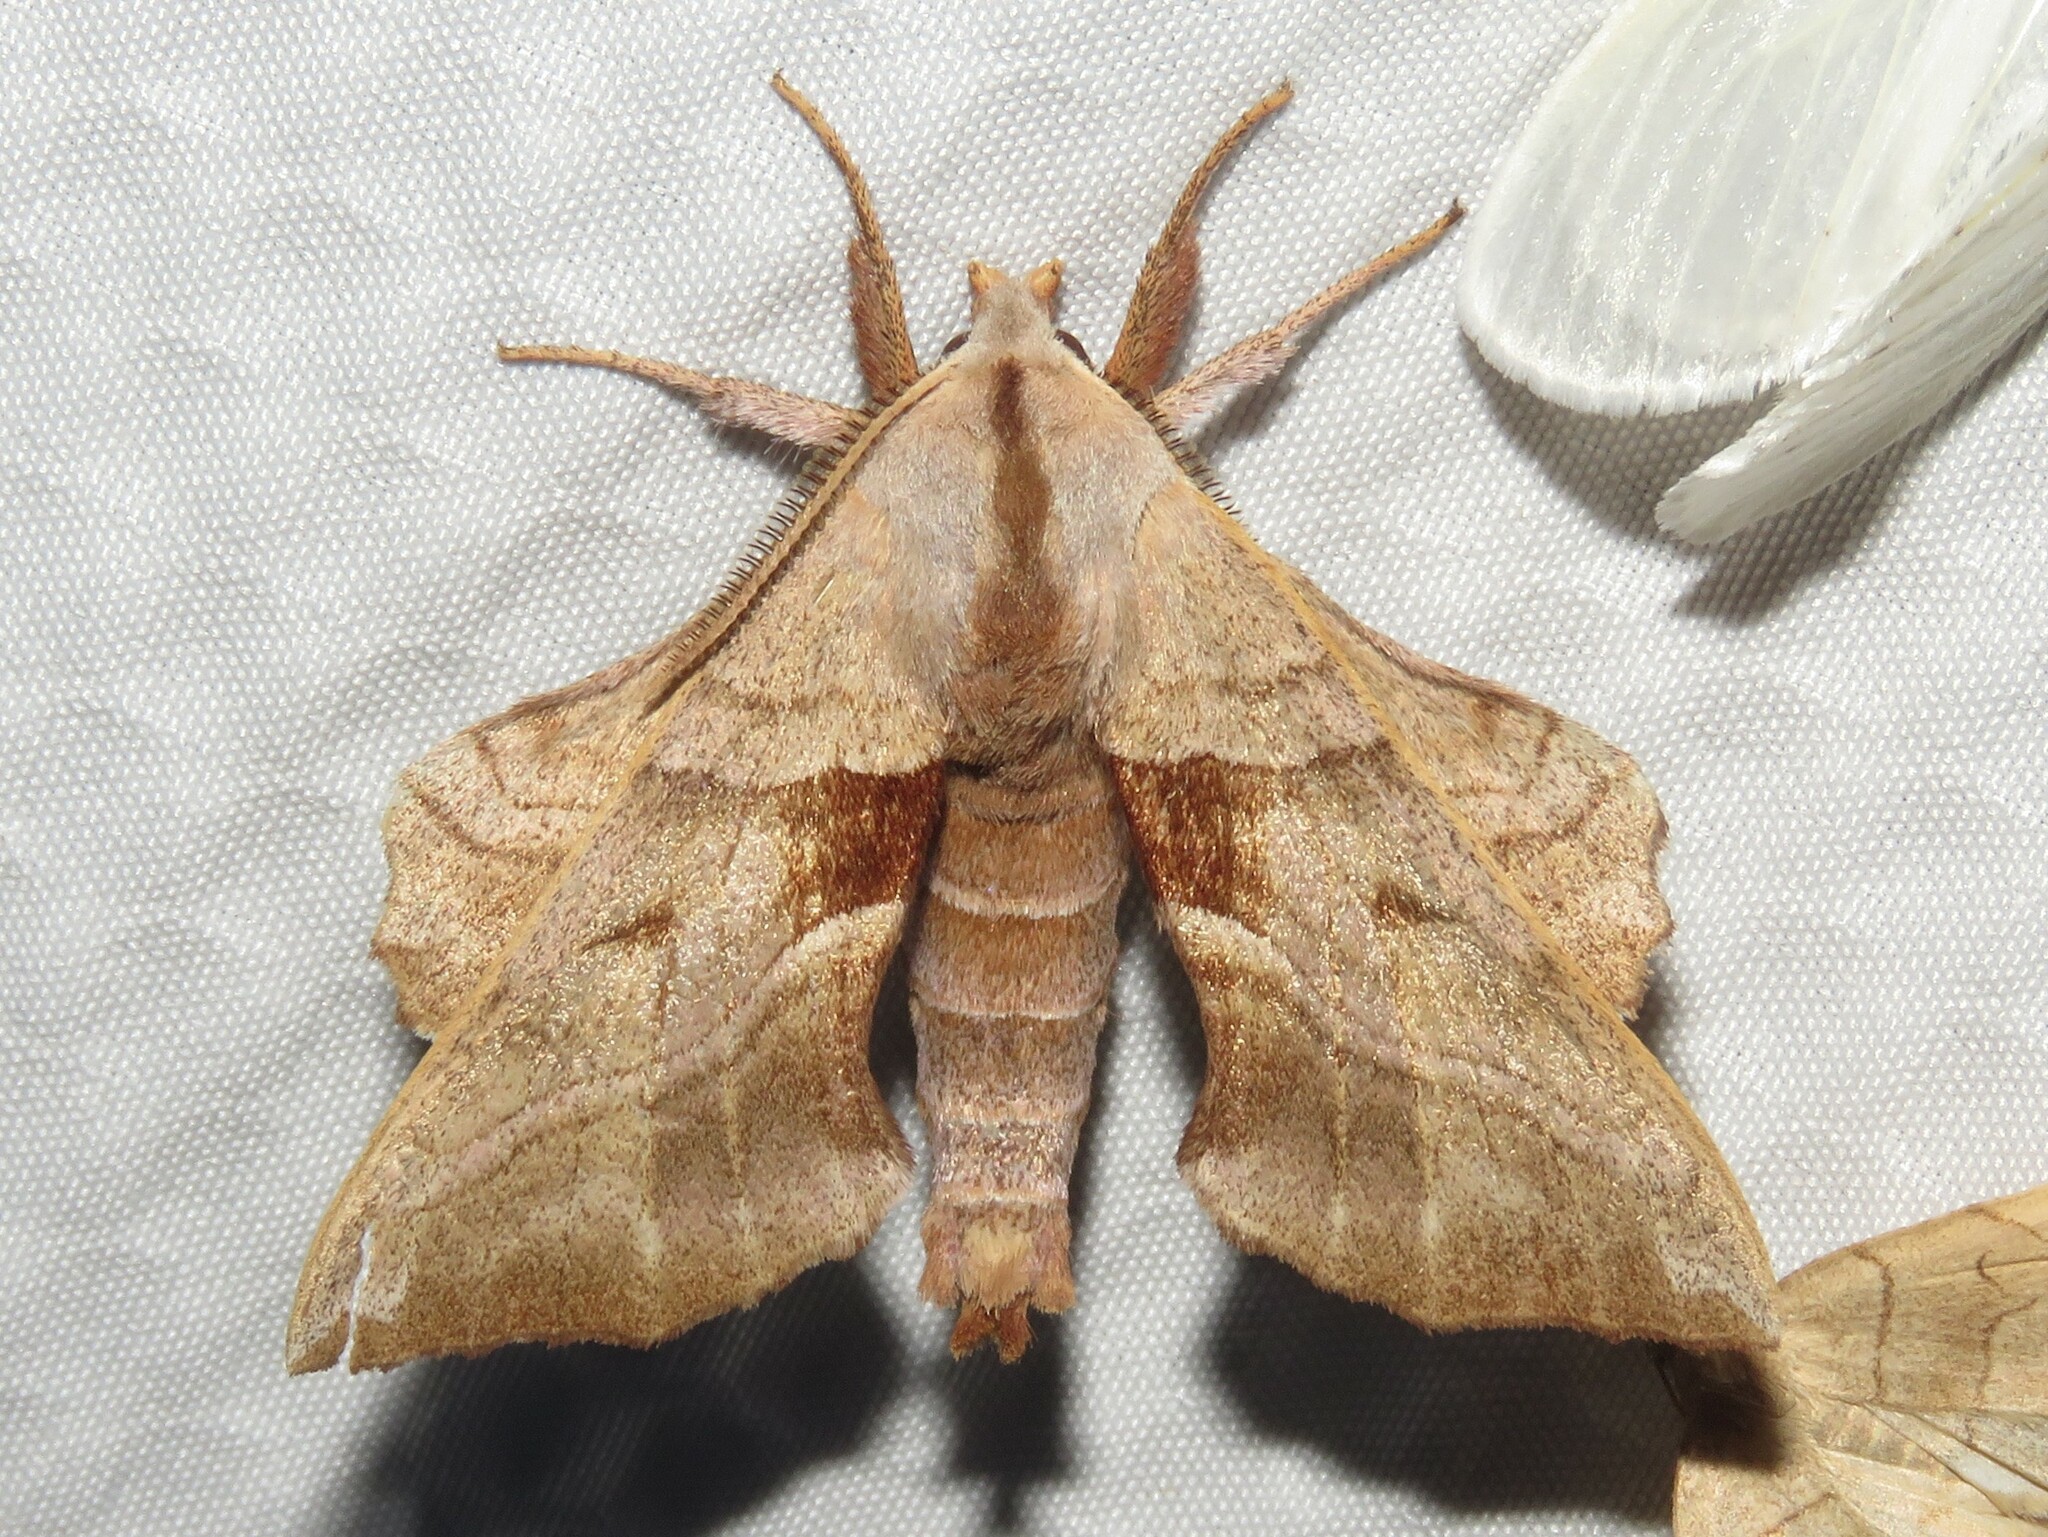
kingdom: Animalia
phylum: Arthropoda
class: Insecta
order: Lepidoptera
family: Sphingidae
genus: Amorpha
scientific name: Amorpha juglandis
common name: Walnut sphinx
